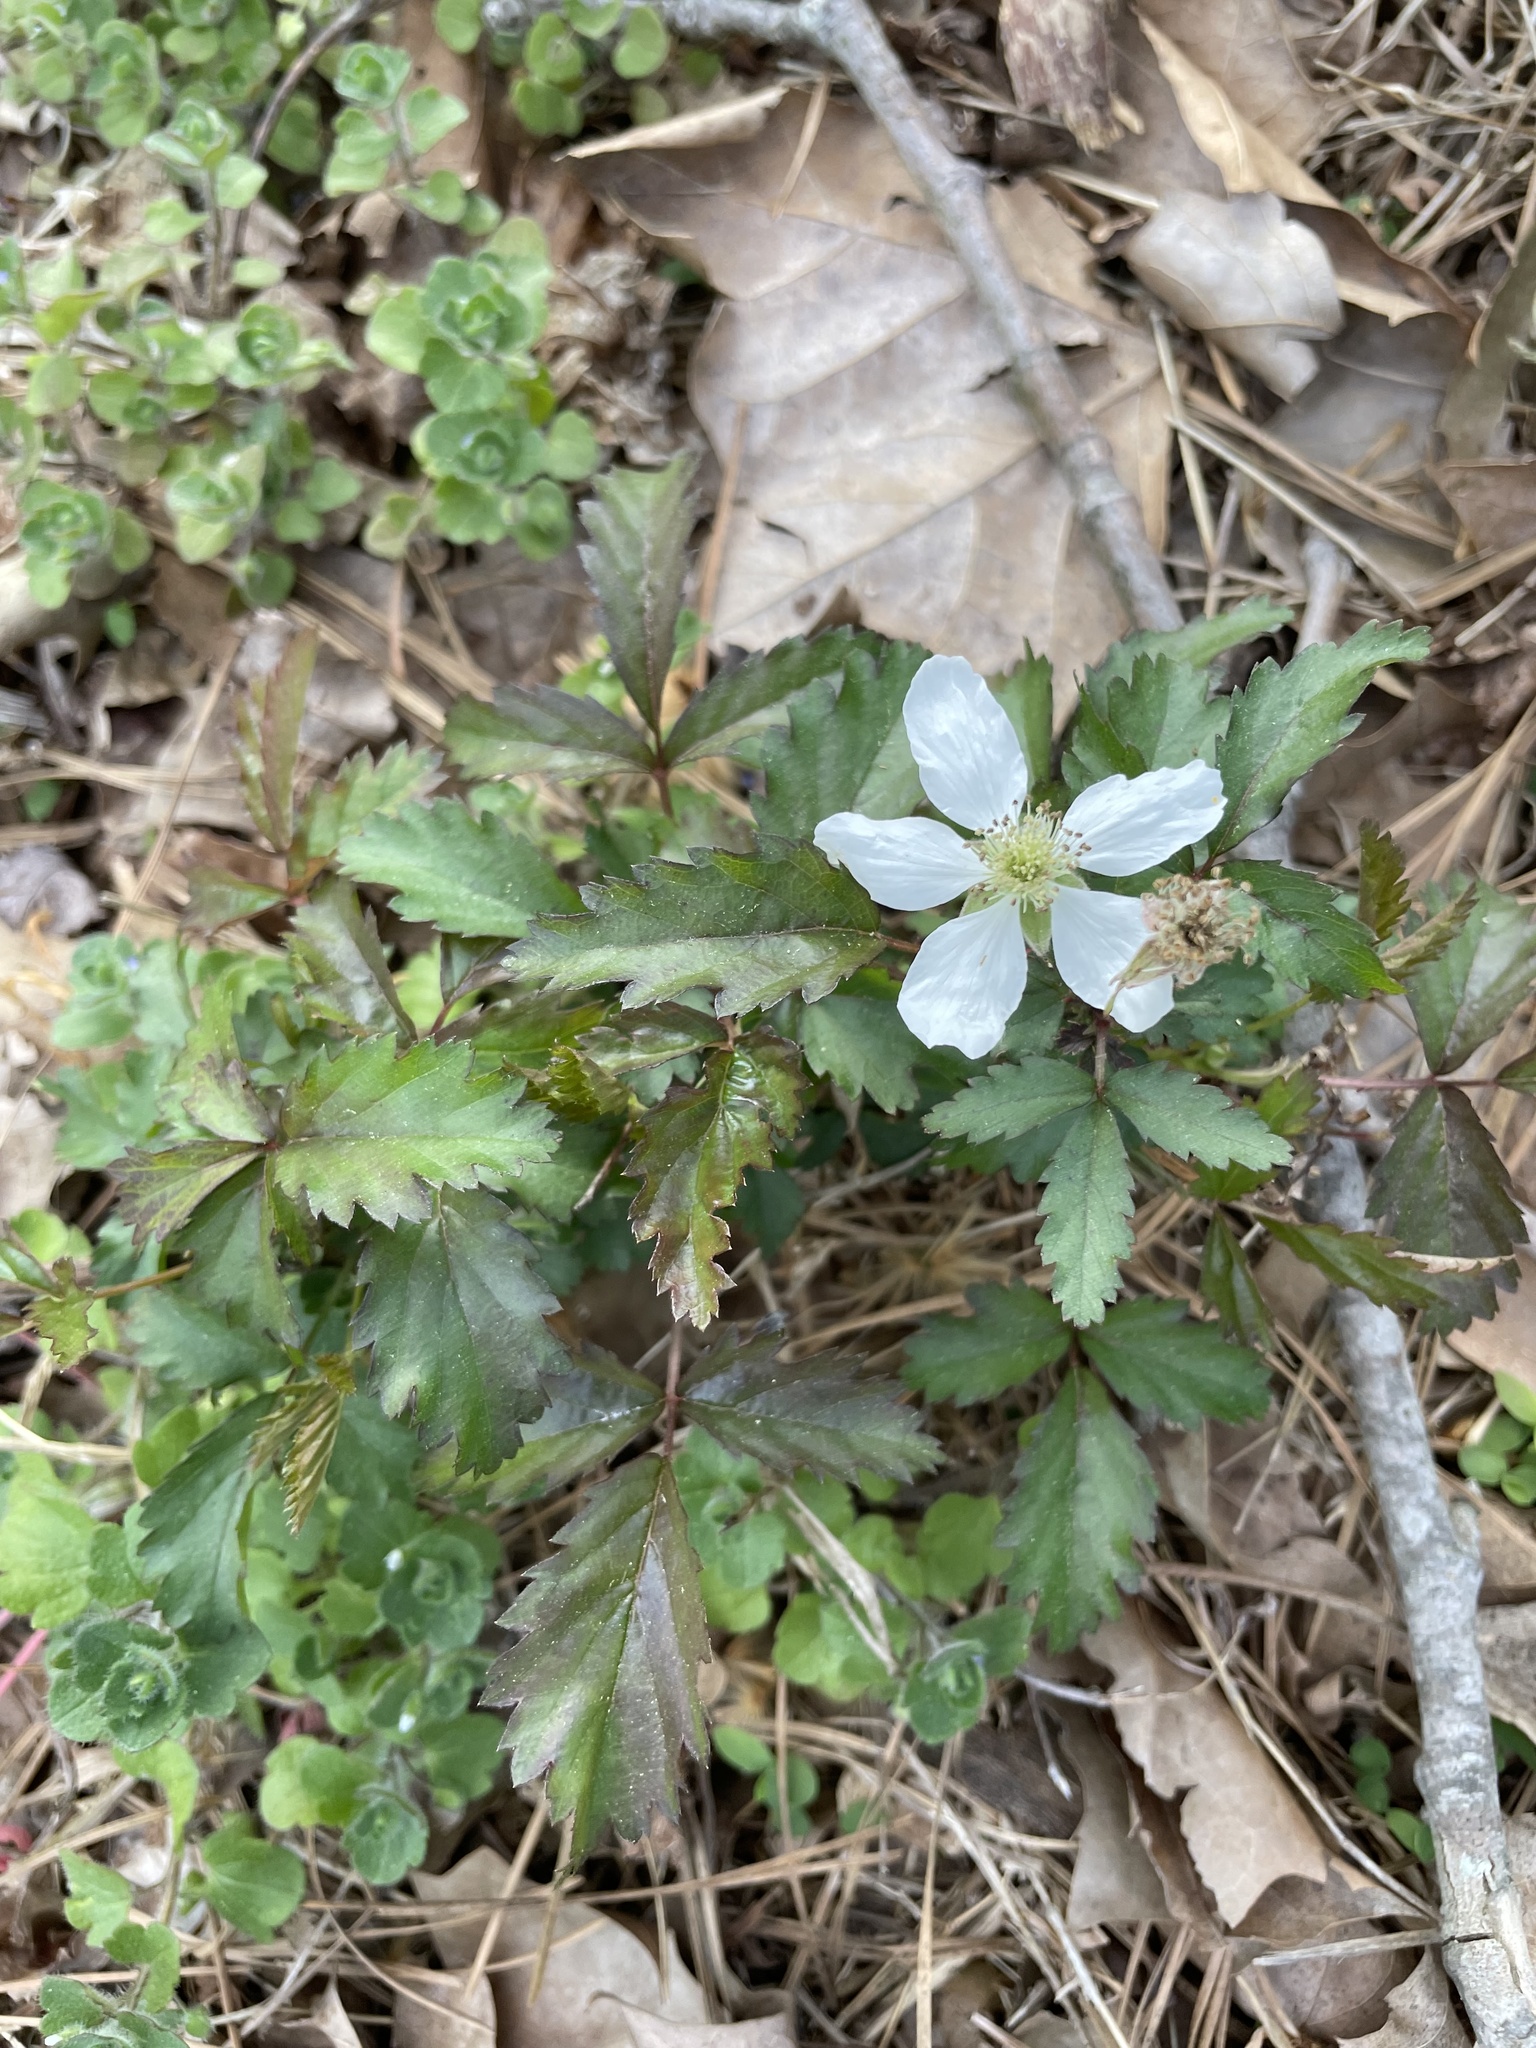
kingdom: Plantae
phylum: Tracheophyta
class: Magnoliopsida
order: Rosales
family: Rosaceae
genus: Rubus
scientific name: Rubus trivialis
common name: Southern dewberry
